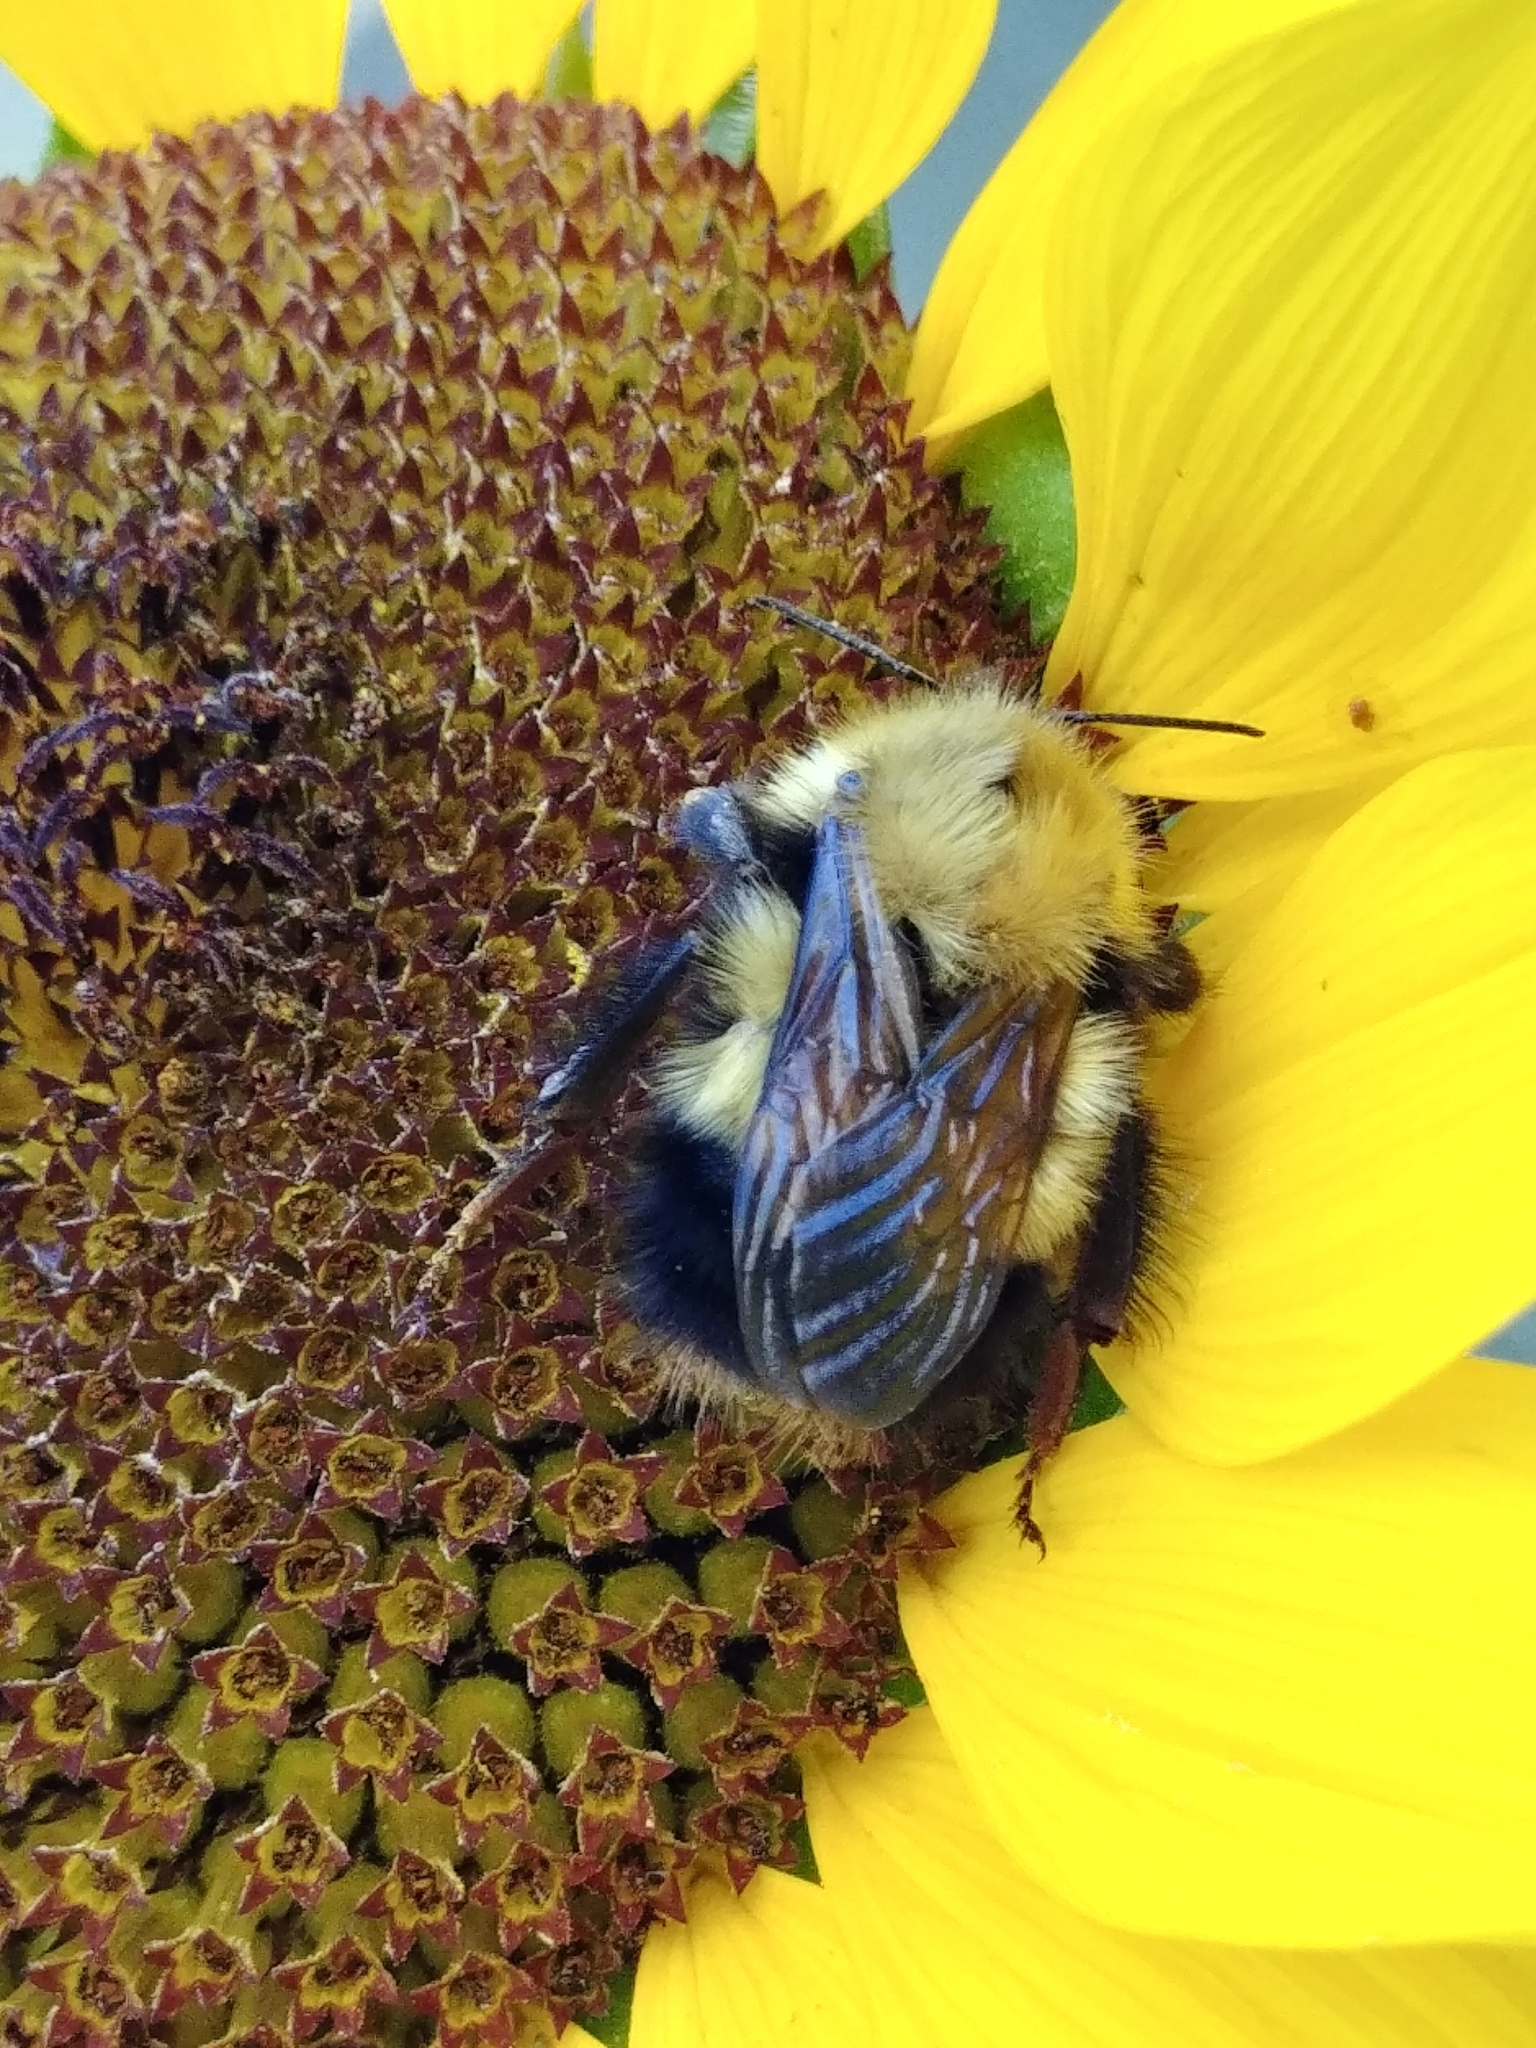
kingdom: Animalia
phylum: Arthropoda
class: Insecta
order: Hymenoptera
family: Apidae
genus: Bombus
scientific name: Bombus perplexus
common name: Confusing bumble bee
